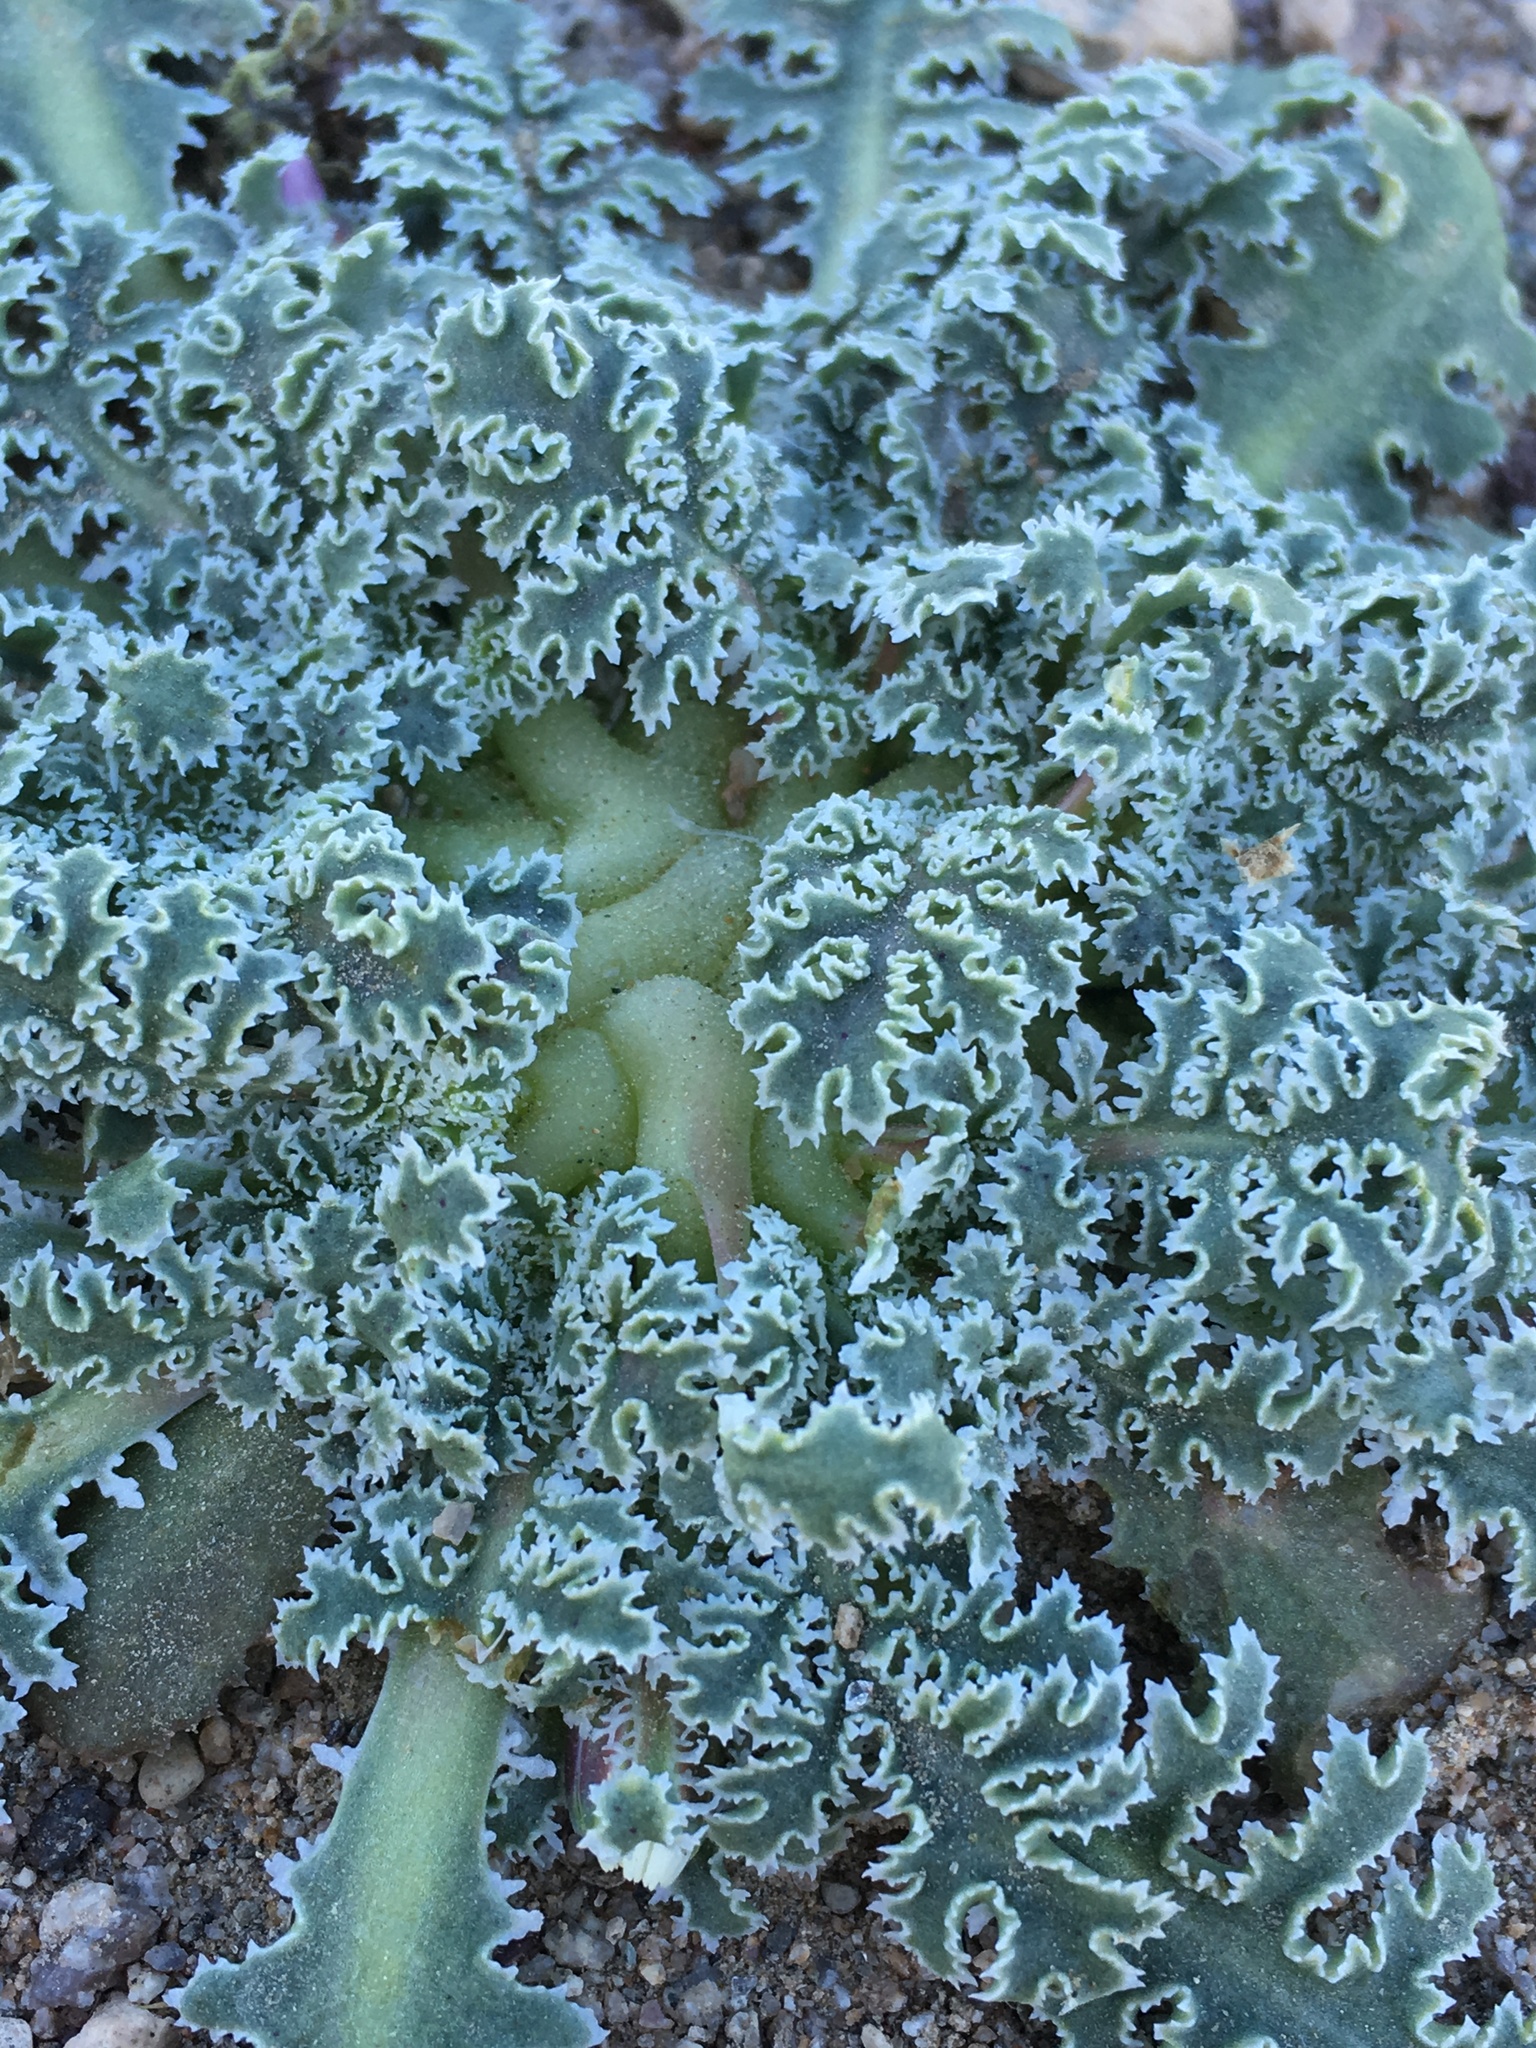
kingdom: Plantae
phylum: Tracheophyta
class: Magnoliopsida
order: Asterales
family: Asteraceae
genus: Glyptopleura
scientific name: Glyptopleura marginata
